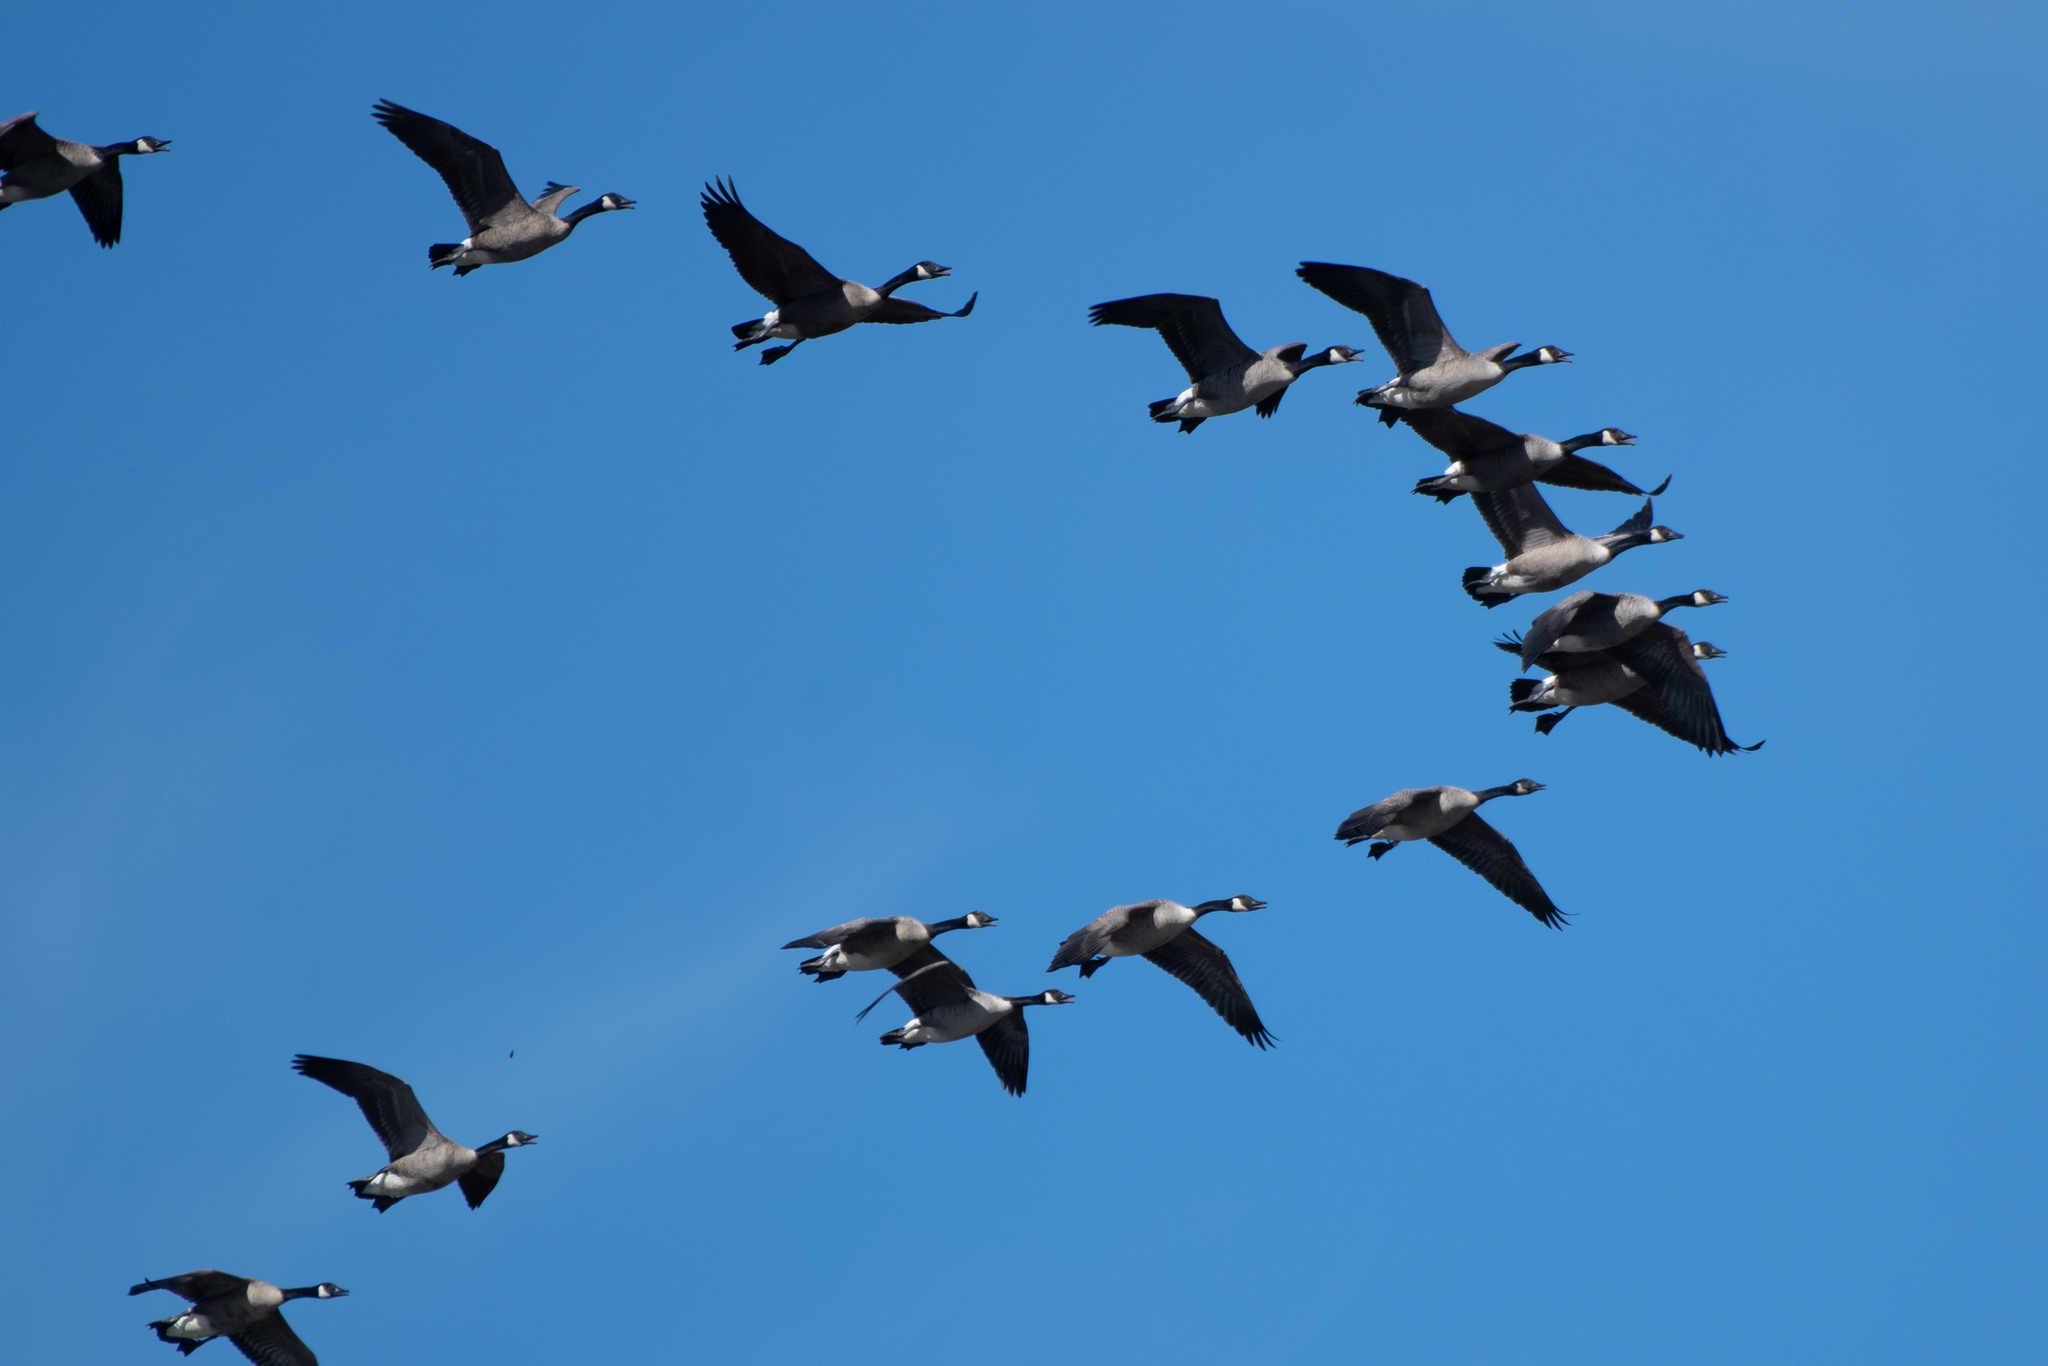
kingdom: Animalia
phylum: Chordata
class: Aves
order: Anseriformes
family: Anatidae
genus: Branta
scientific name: Branta canadensis
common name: Canada goose
